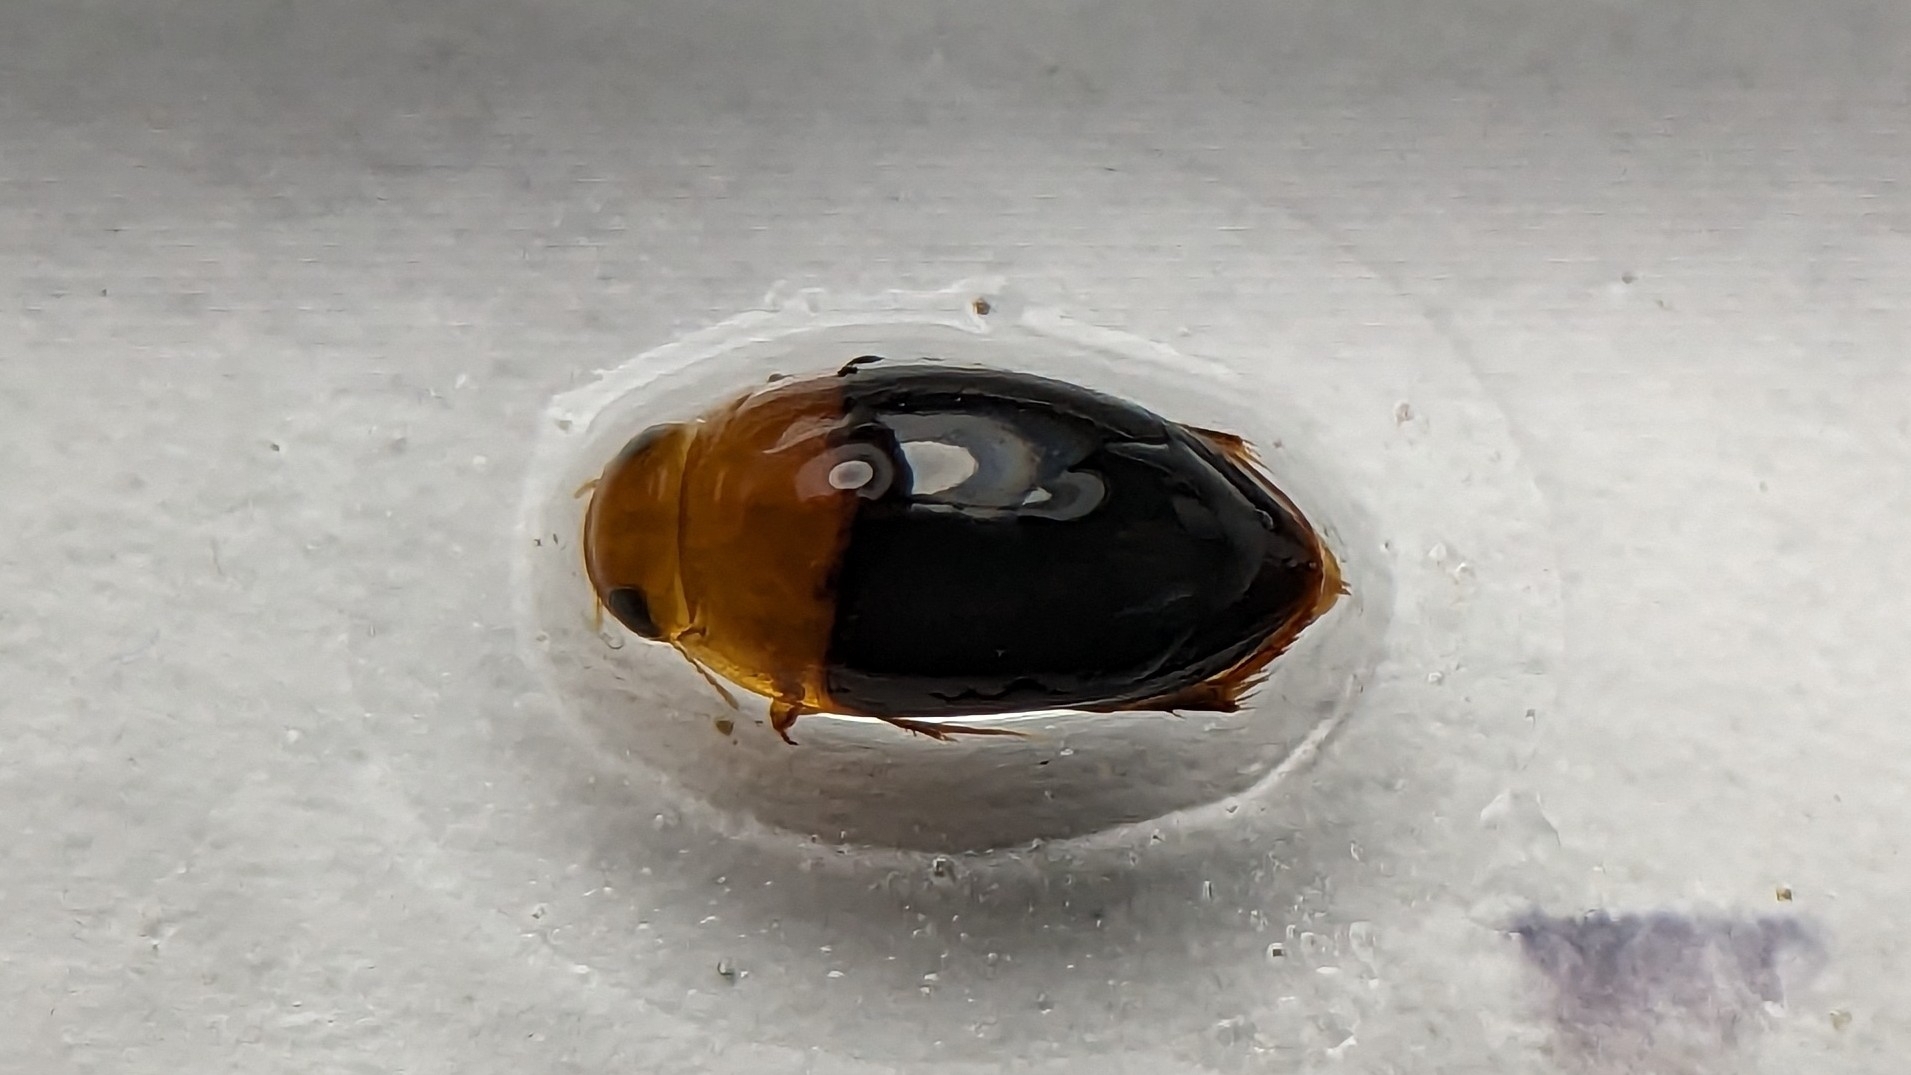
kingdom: Animalia
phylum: Arthropoda
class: Insecta
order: Coleoptera
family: Noteridae
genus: Hydrocanthus
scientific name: Hydrocanthus
